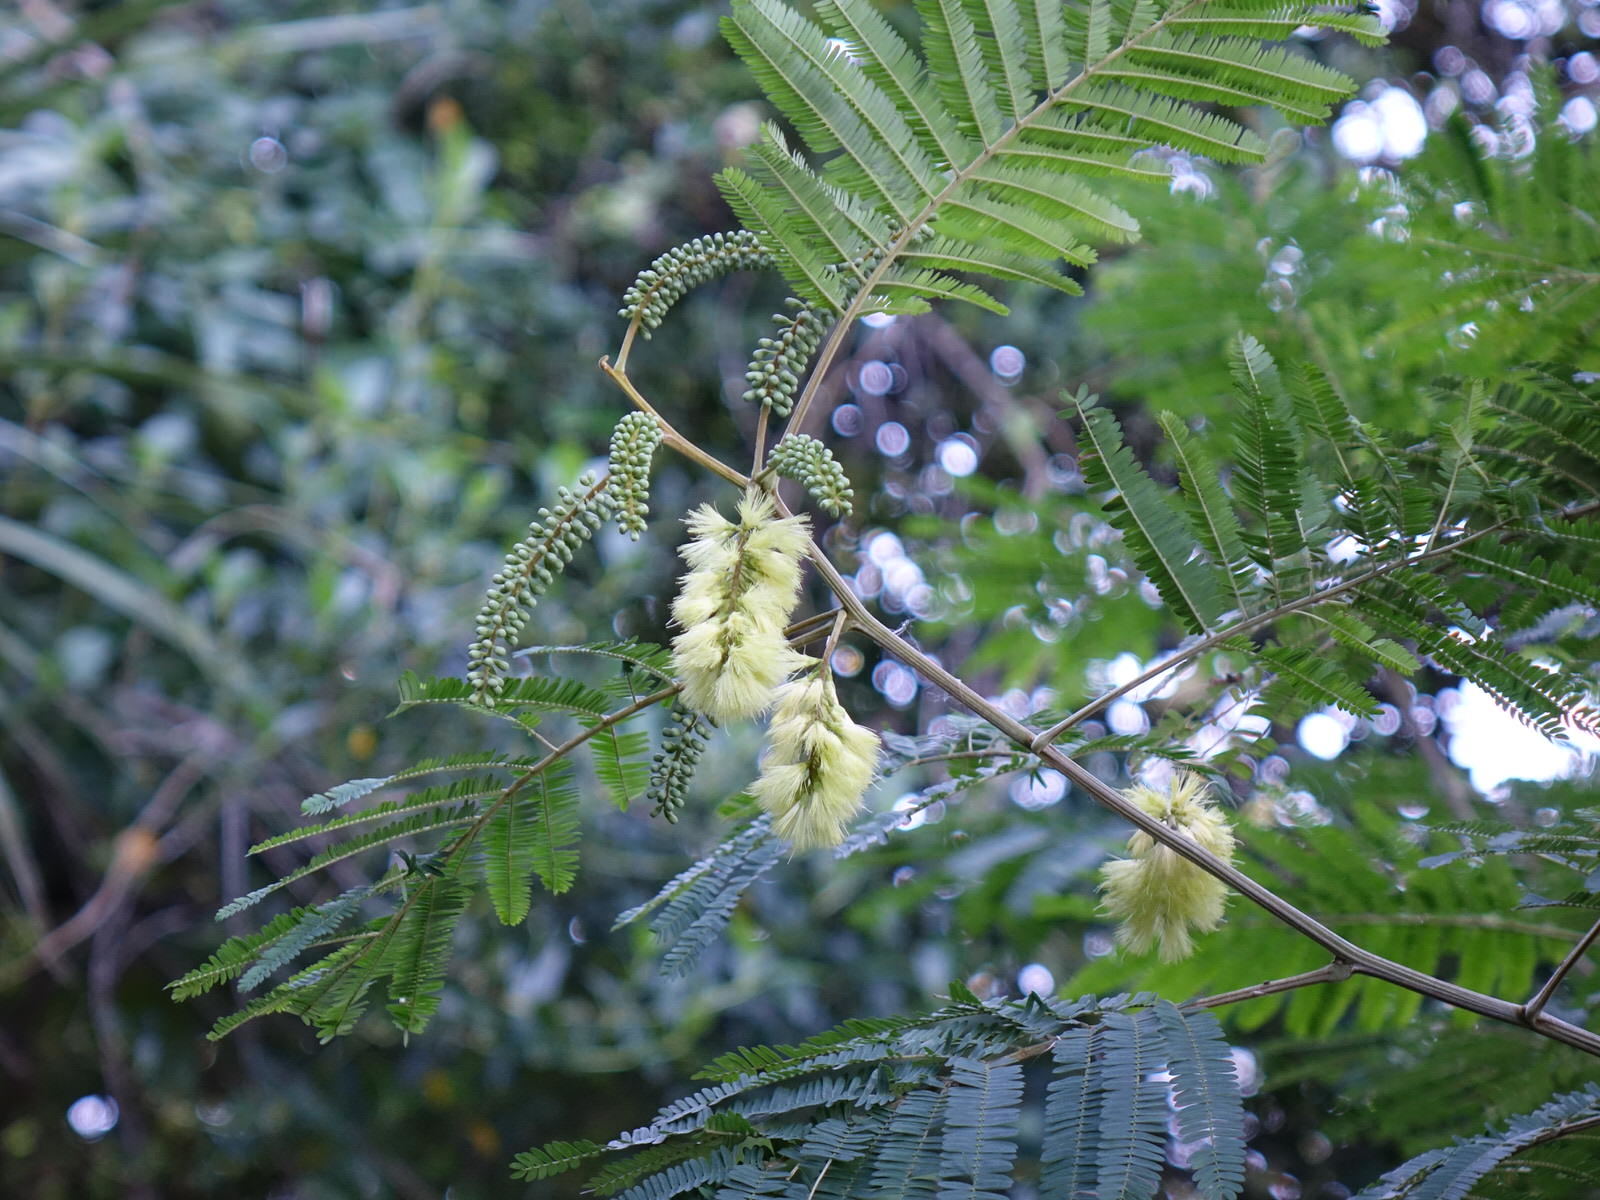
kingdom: Plantae
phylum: Tracheophyta
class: Magnoliopsida
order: Fabales
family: Fabaceae
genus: Paraserianthes
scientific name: Paraserianthes lophantha
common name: Plume albizia
